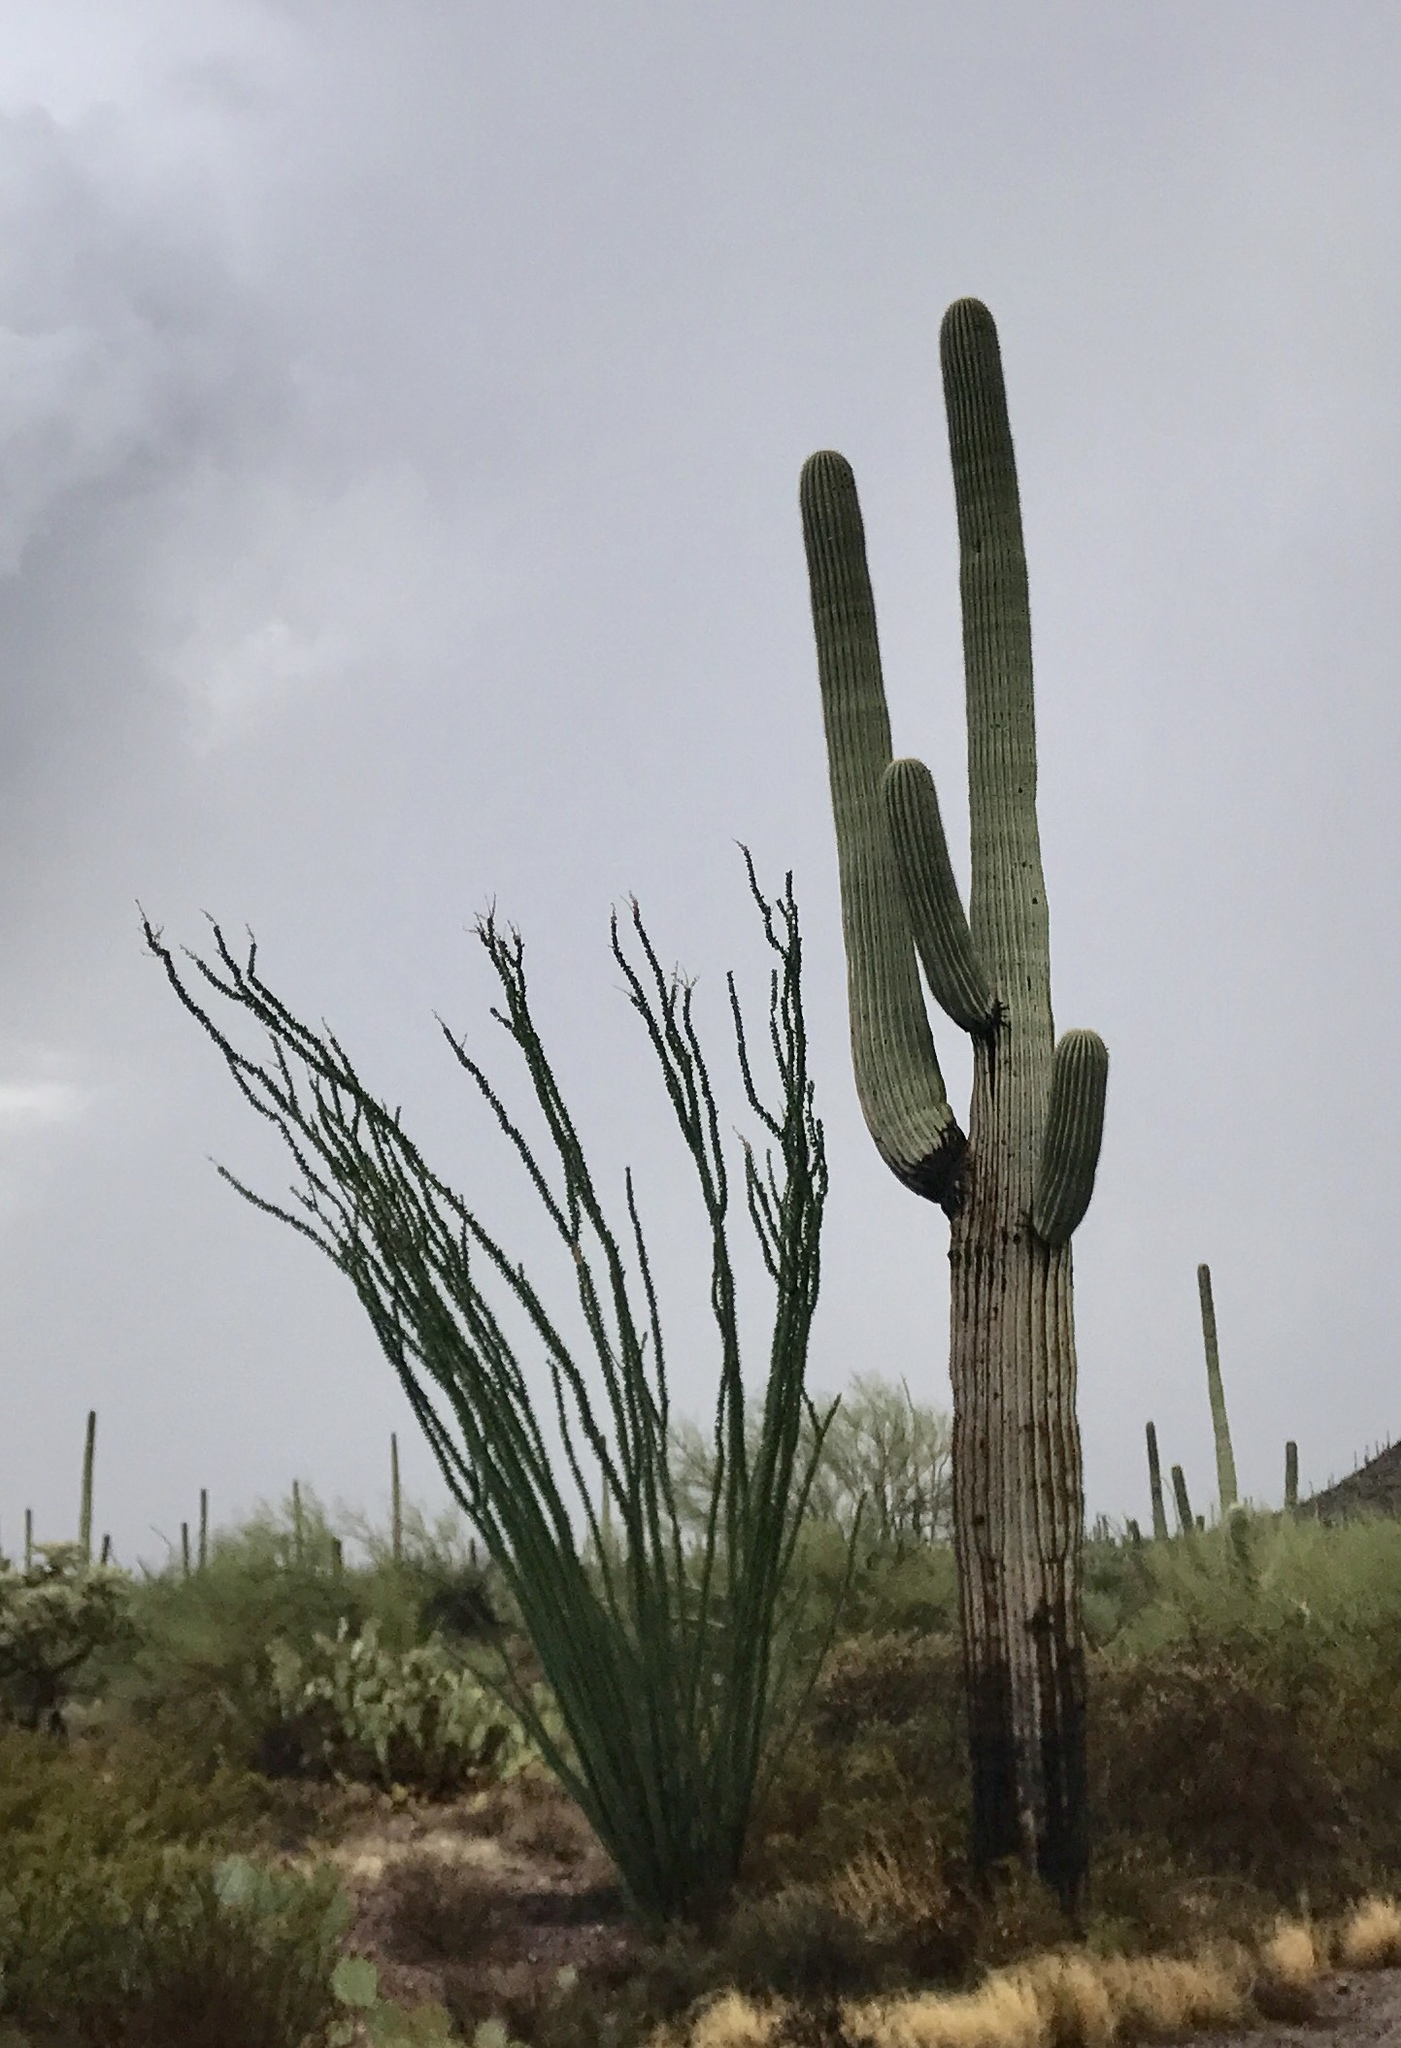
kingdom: Plantae
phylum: Tracheophyta
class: Magnoliopsida
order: Caryophyllales
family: Cactaceae
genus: Carnegiea
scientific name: Carnegiea gigantea
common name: Saguaro
